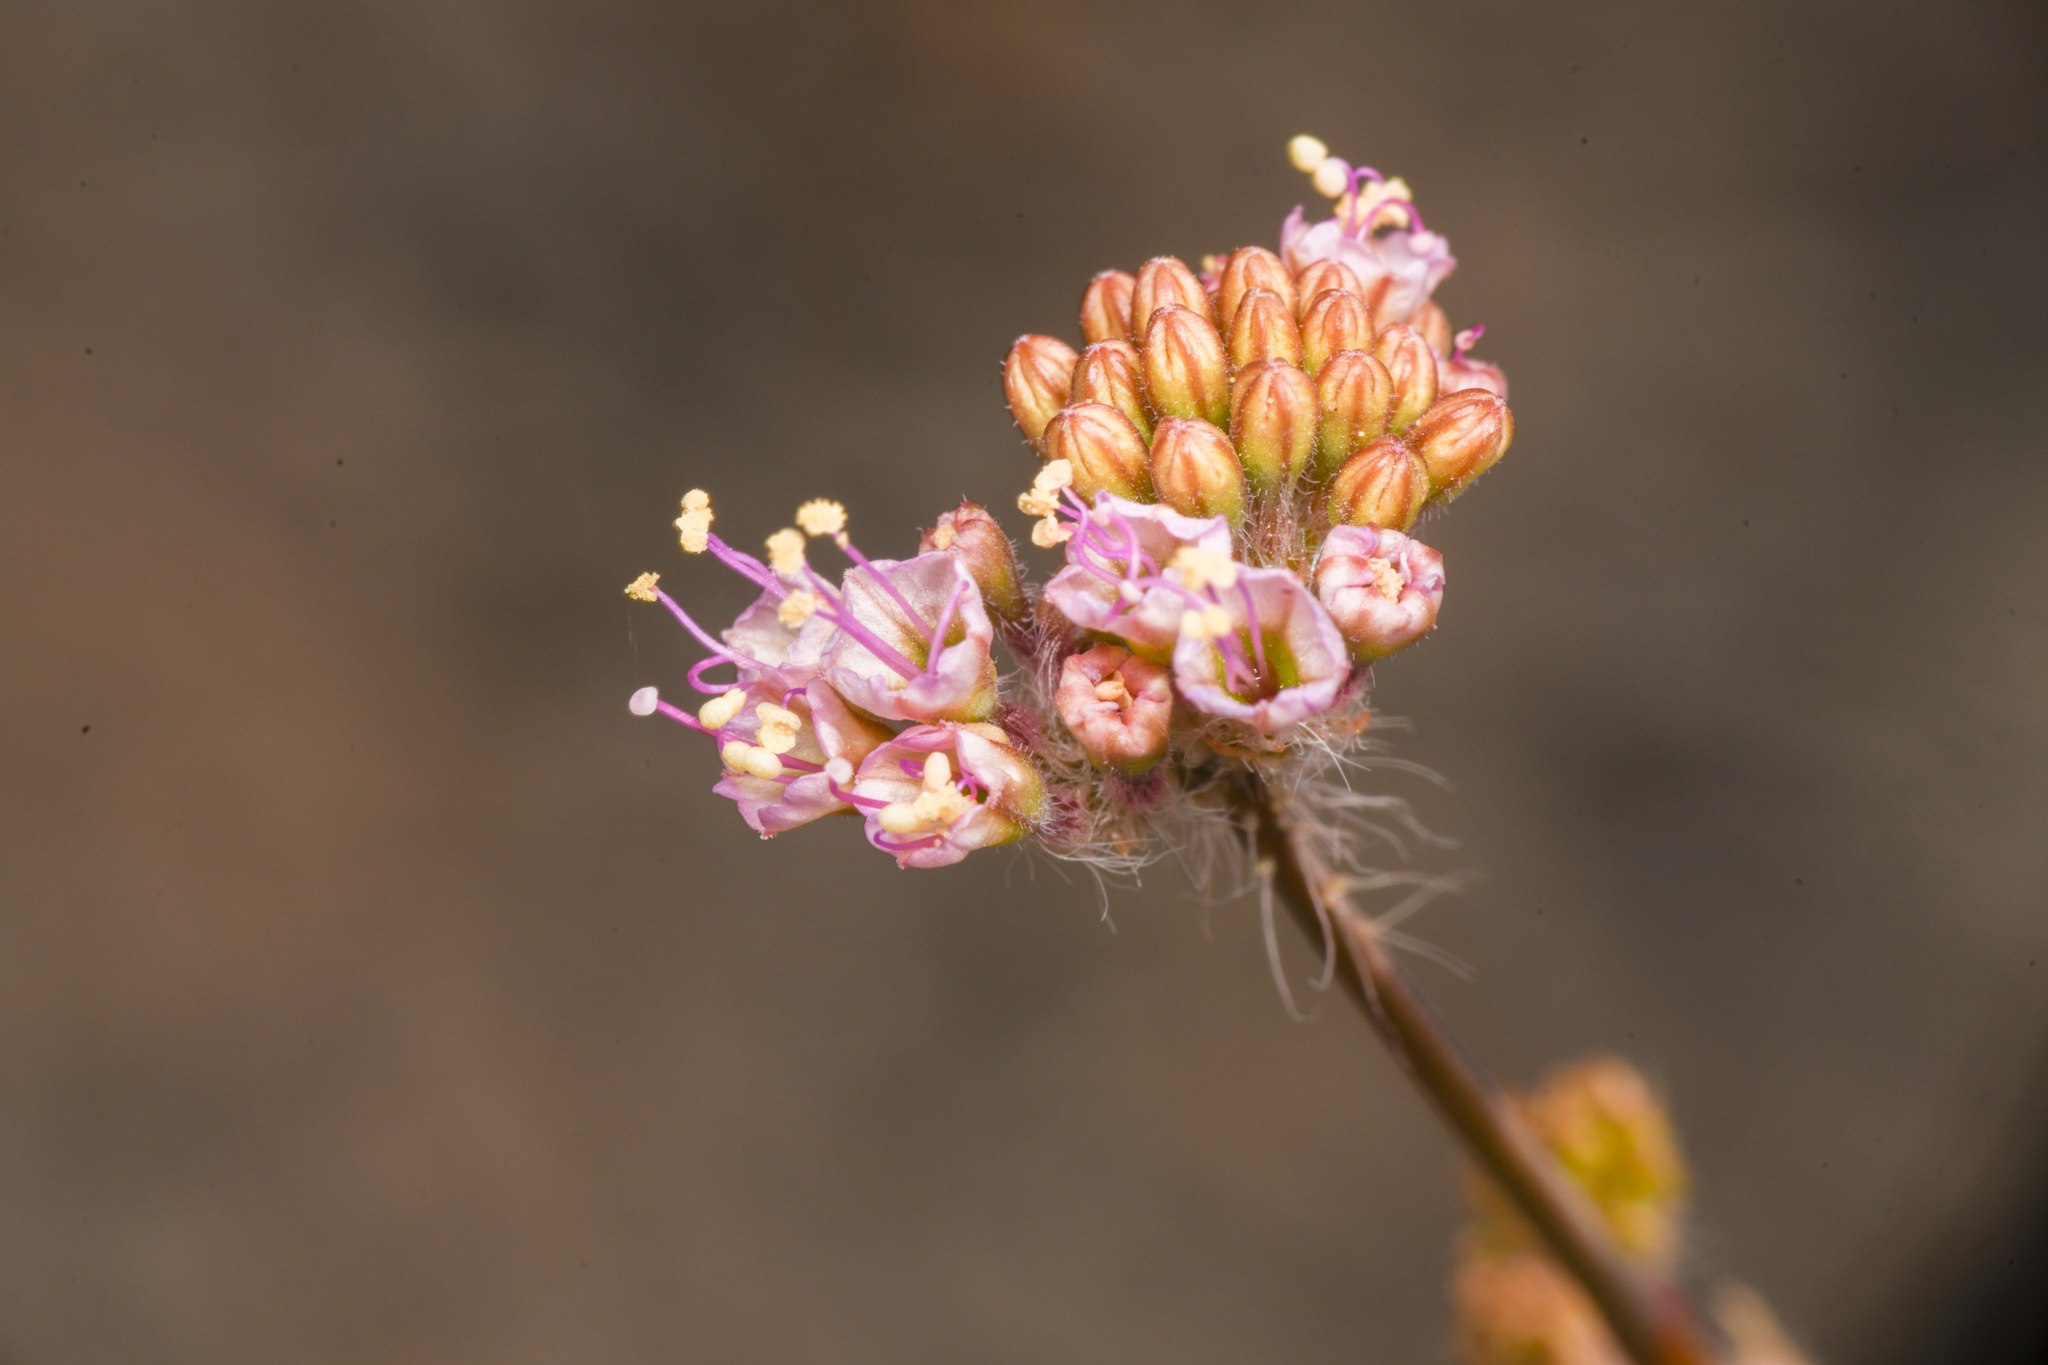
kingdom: Plantae
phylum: Tracheophyta
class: Magnoliopsida
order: Caryophyllales
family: Nyctaginaceae
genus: Anulocaulis
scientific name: Anulocaulis annulatus
